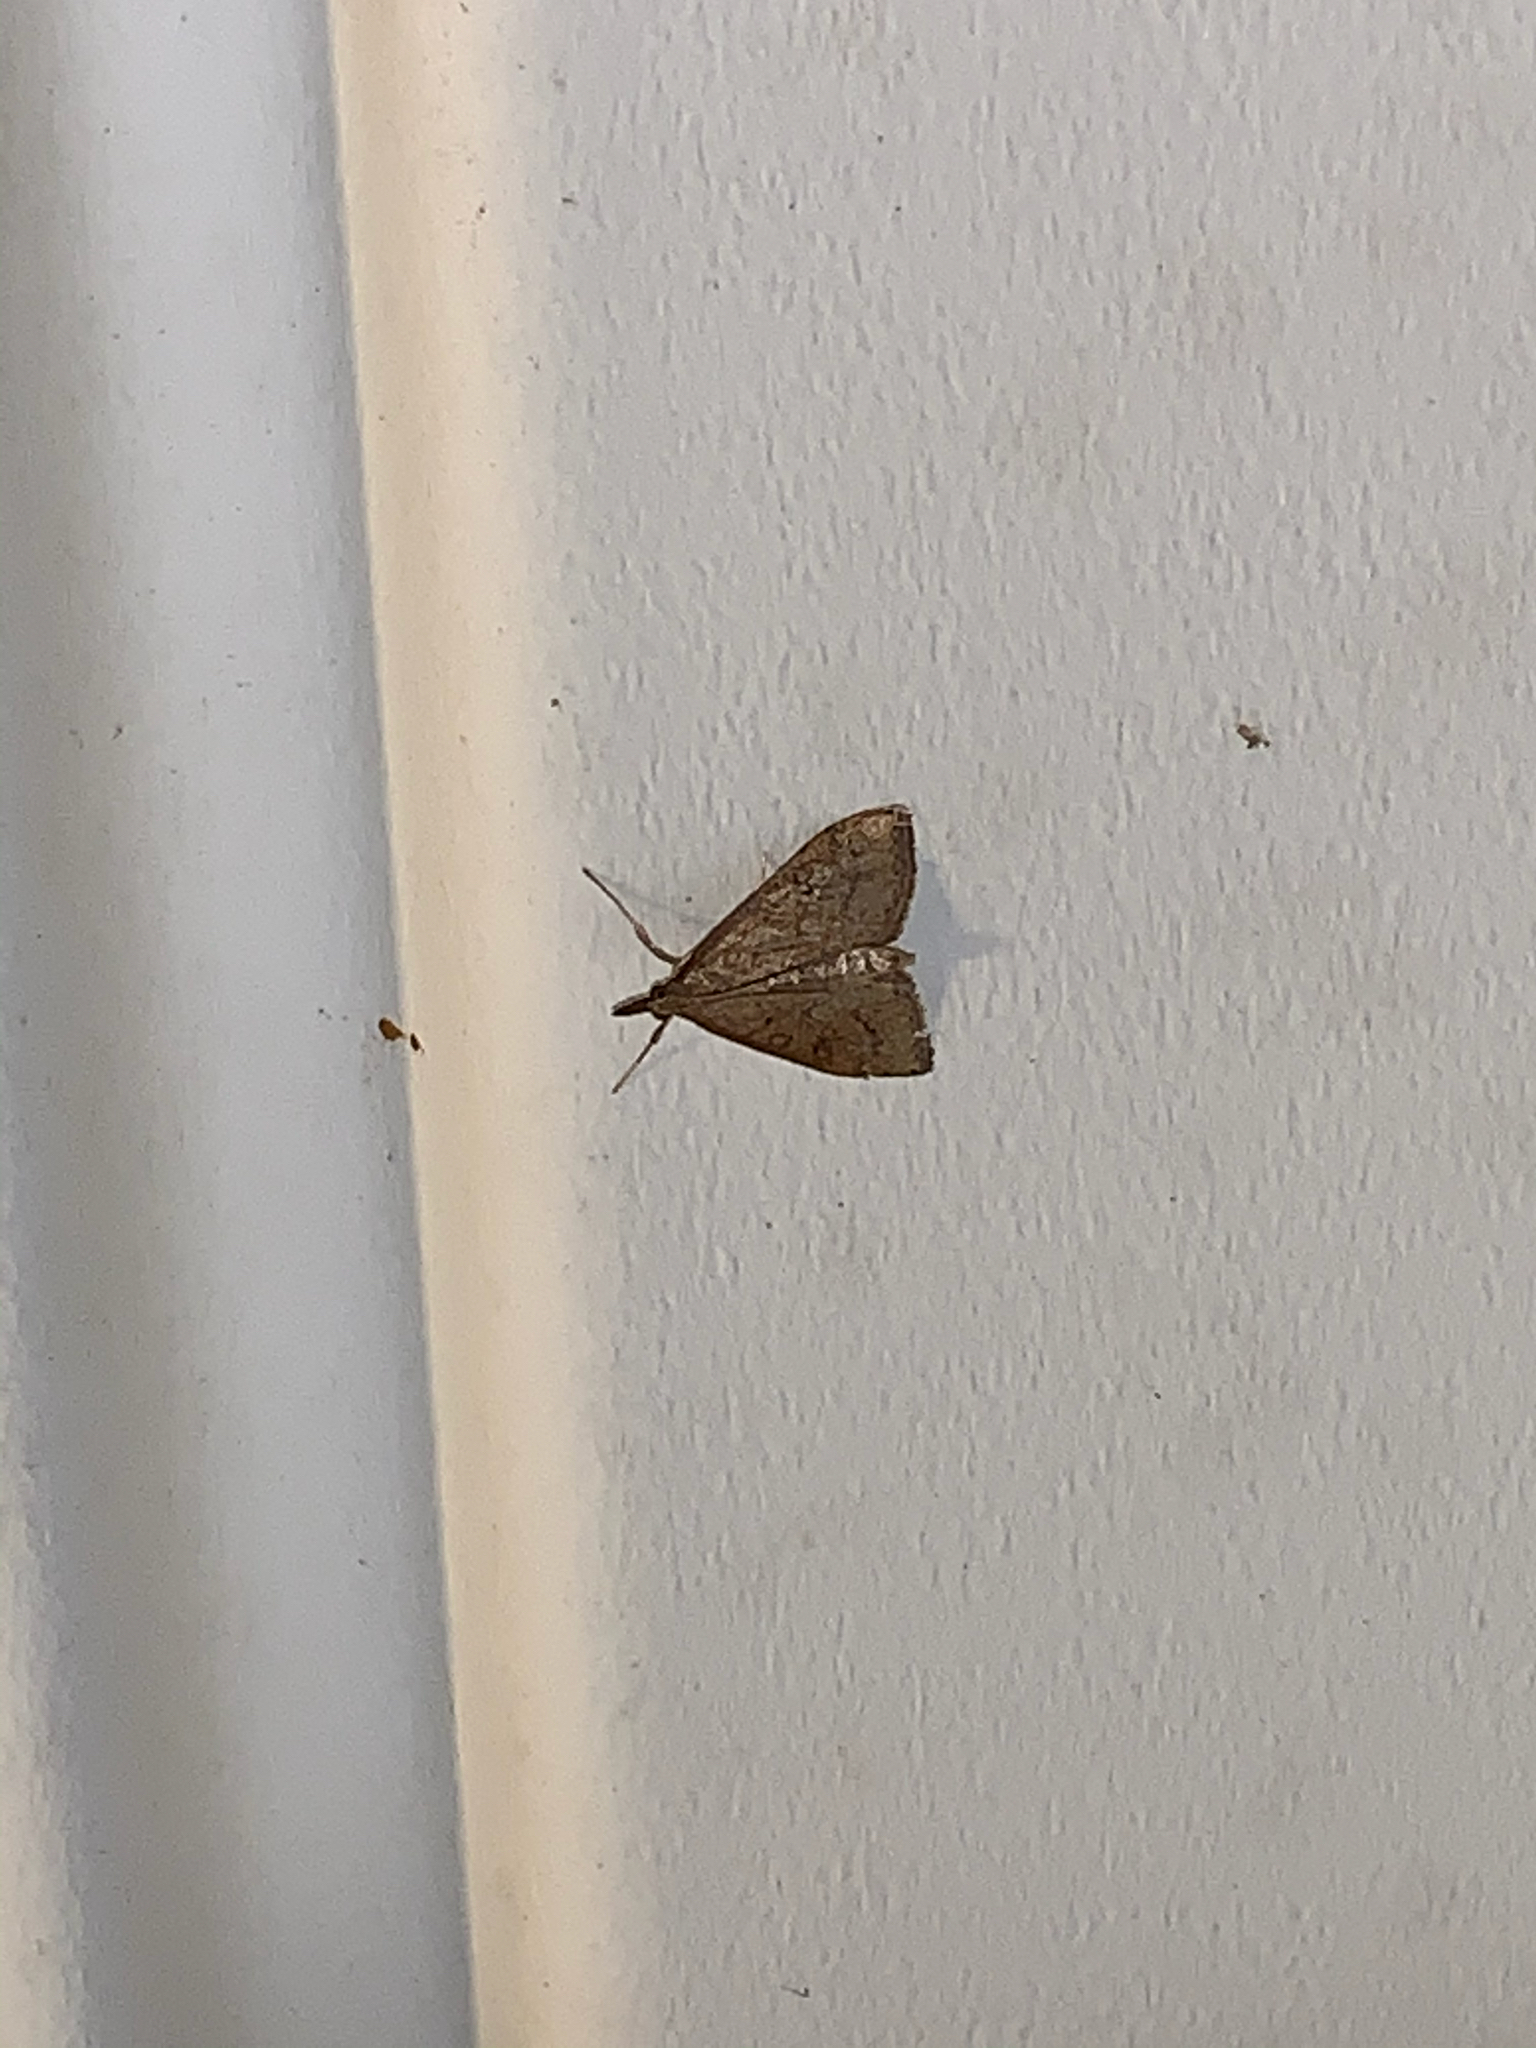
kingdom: Animalia
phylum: Arthropoda
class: Insecta
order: Lepidoptera
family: Crambidae
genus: Udea
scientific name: Udea rubigalis
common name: Celery leaftier moth
